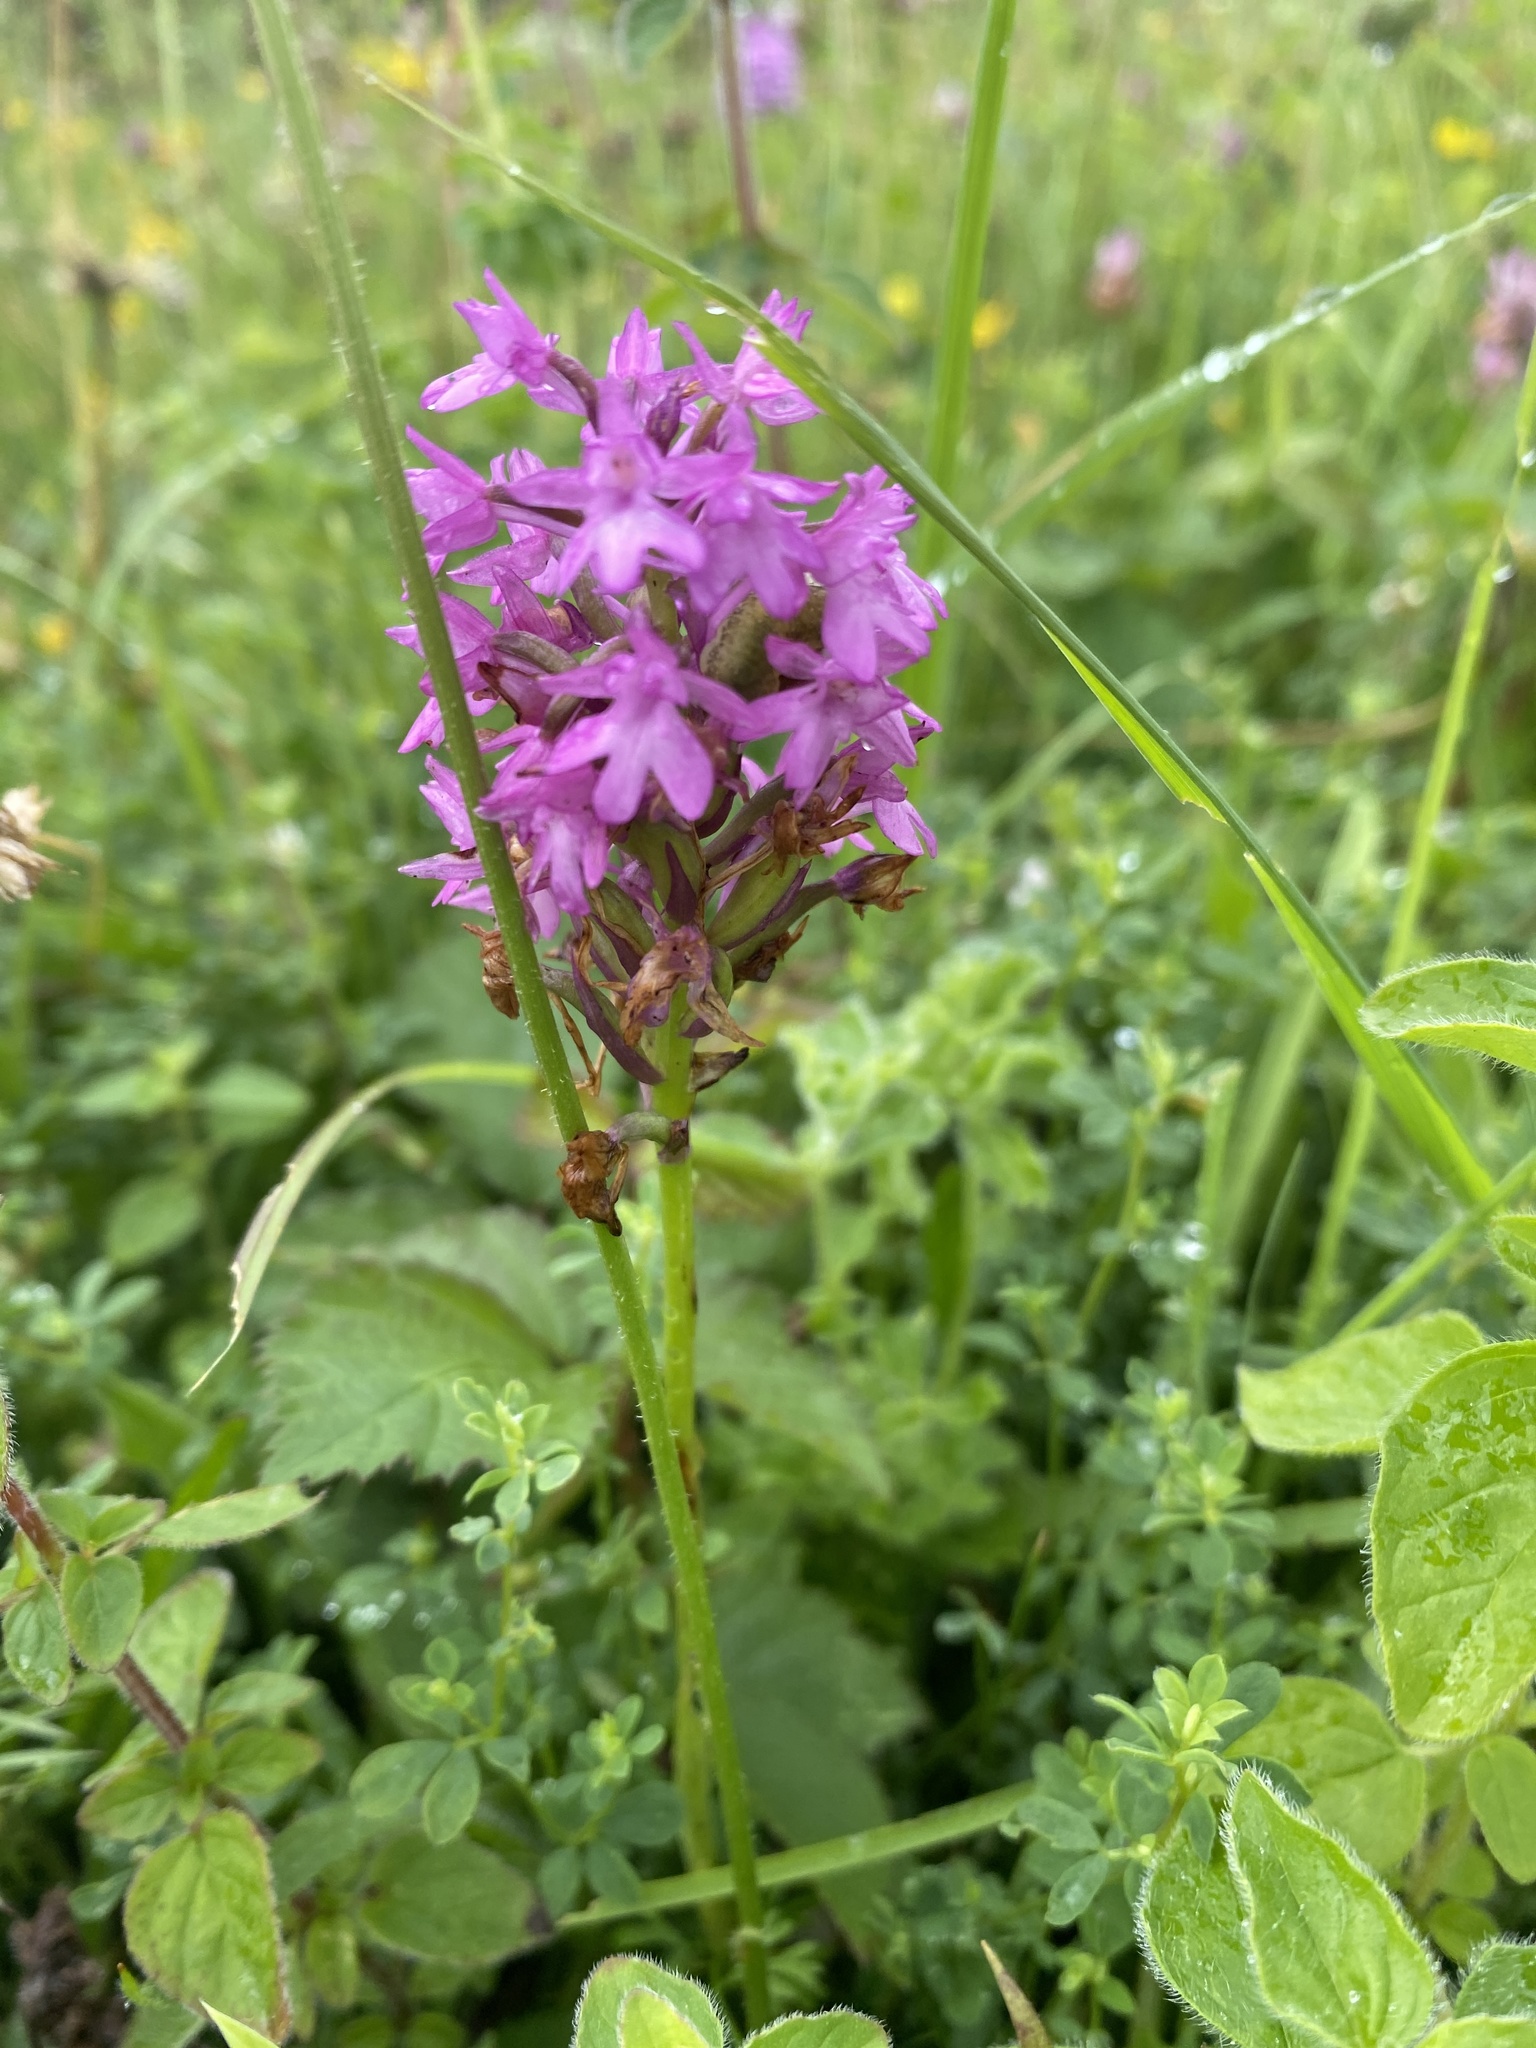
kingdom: Plantae
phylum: Tracheophyta
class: Liliopsida
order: Asparagales
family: Orchidaceae
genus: Anacamptis
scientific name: Anacamptis pyramidalis
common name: Pyramidal orchid
